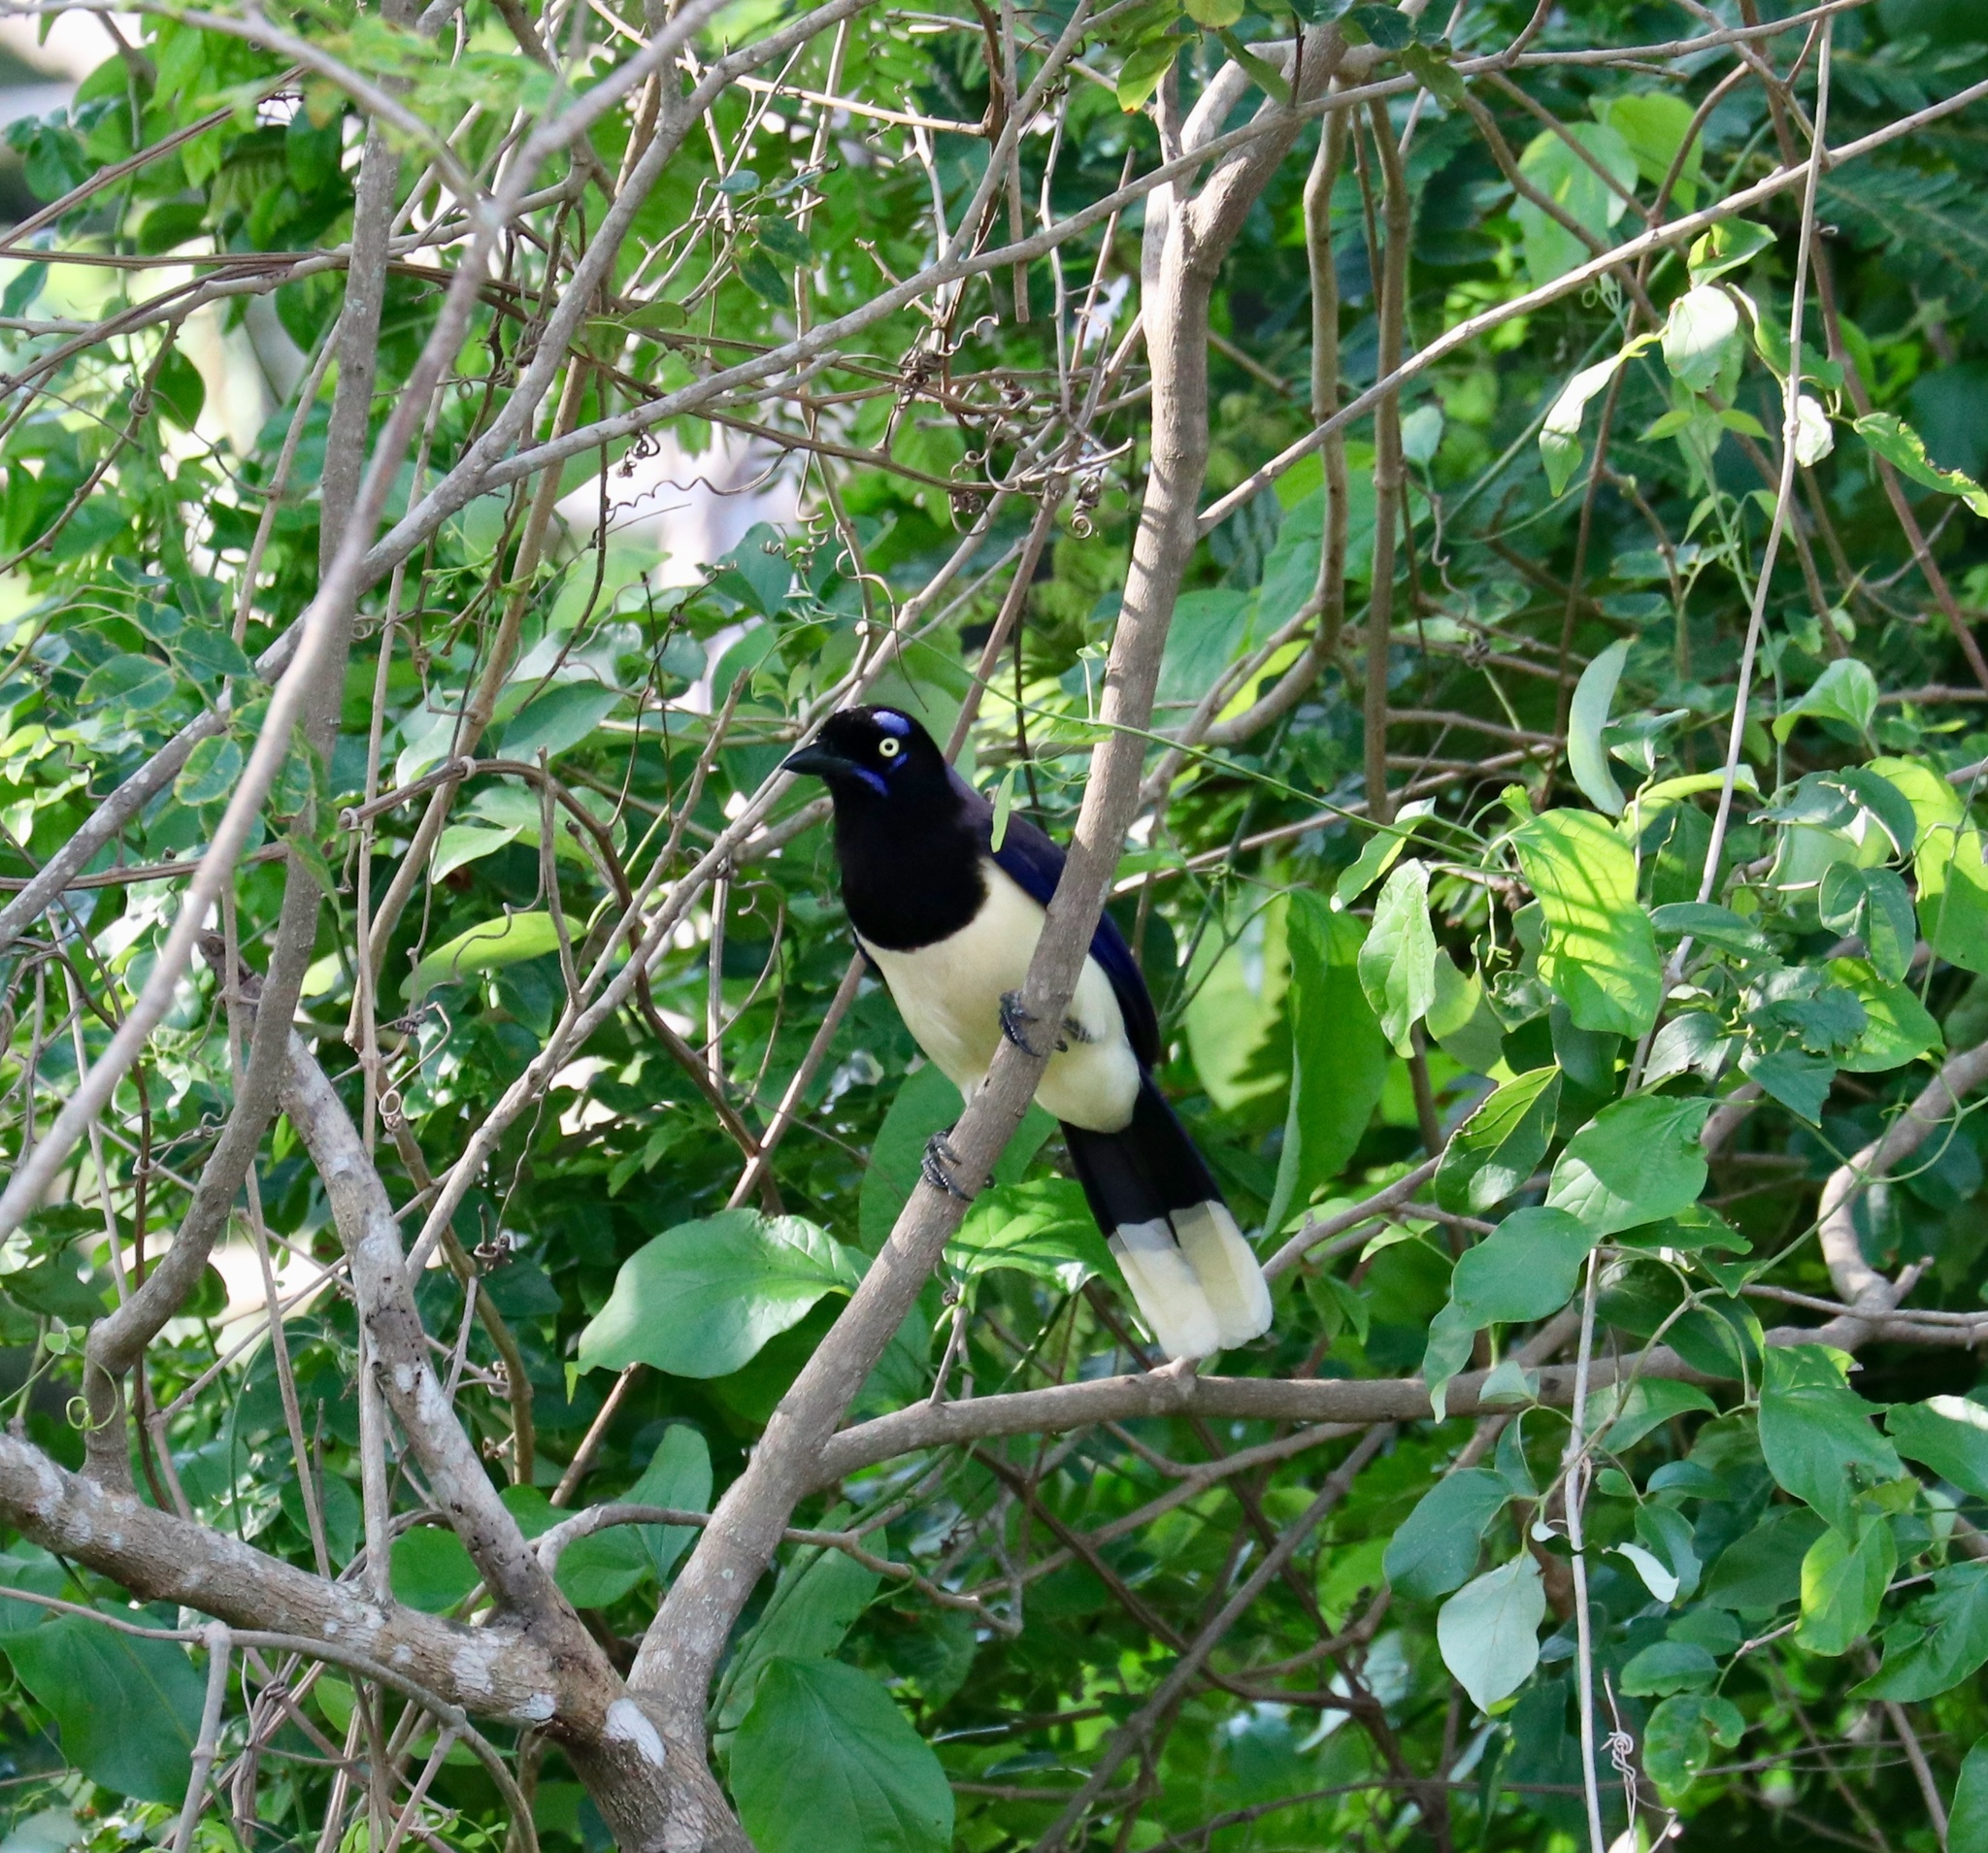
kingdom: Animalia
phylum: Chordata
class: Aves
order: Passeriformes
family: Corvidae
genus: Cyanocorax
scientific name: Cyanocorax affinis
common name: Black-chested jay
